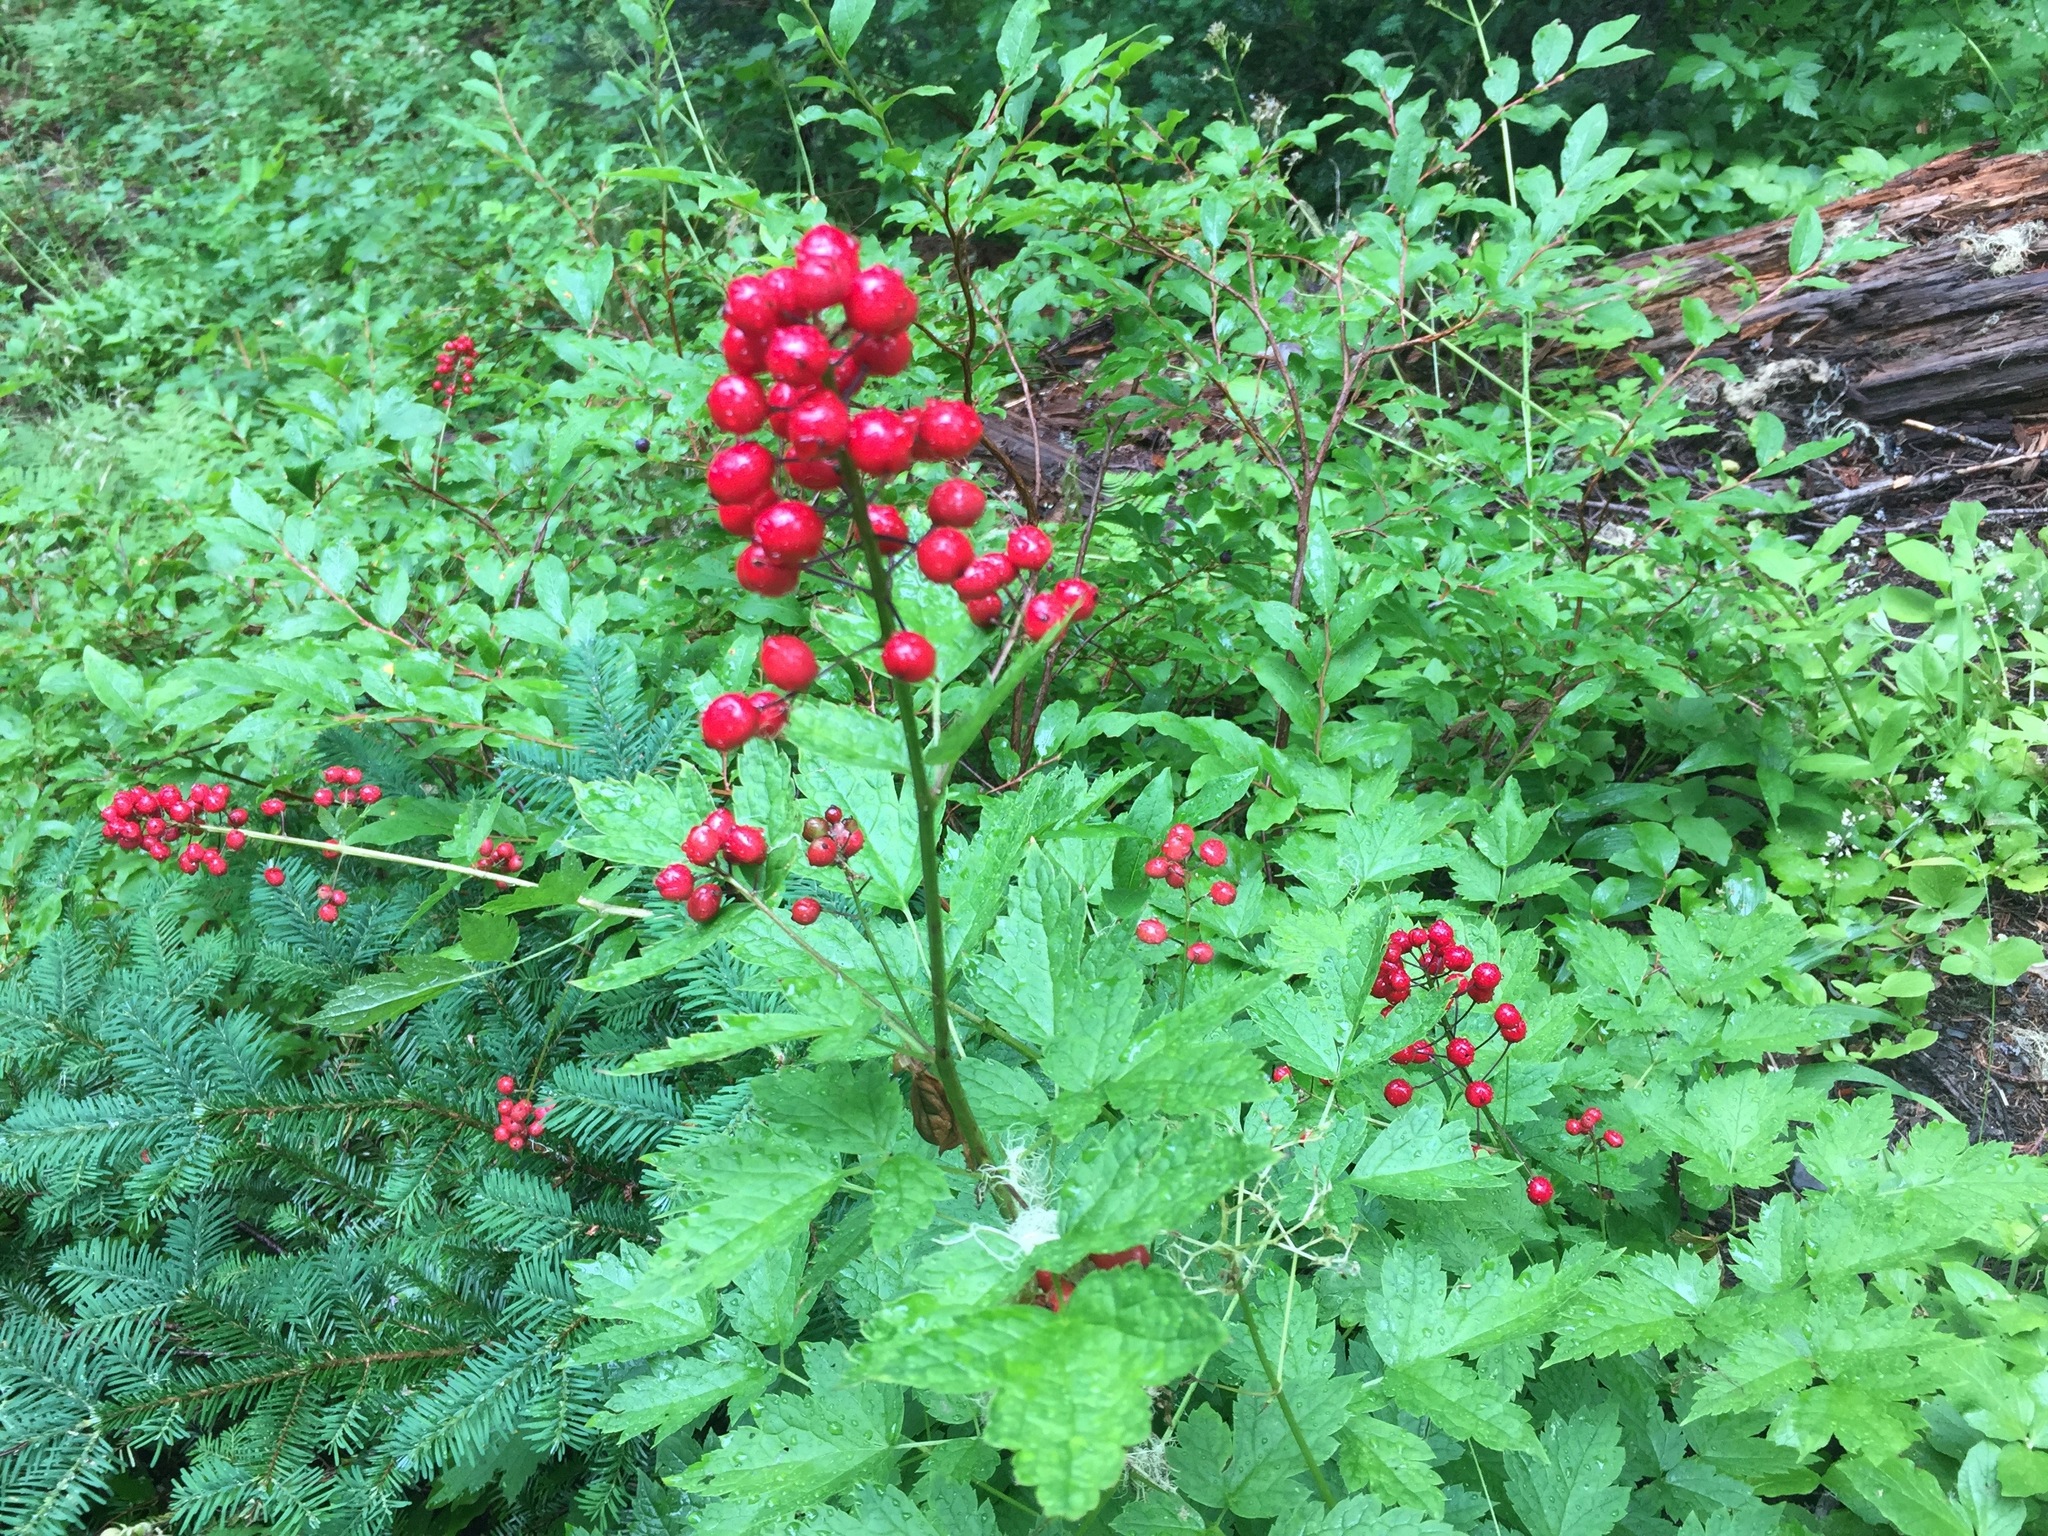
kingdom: Plantae
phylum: Tracheophyta
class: Magnoliopsida
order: Ranunculales
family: Ranunculaceae
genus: Actaea
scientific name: Actaea rubra
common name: Red baneberry
